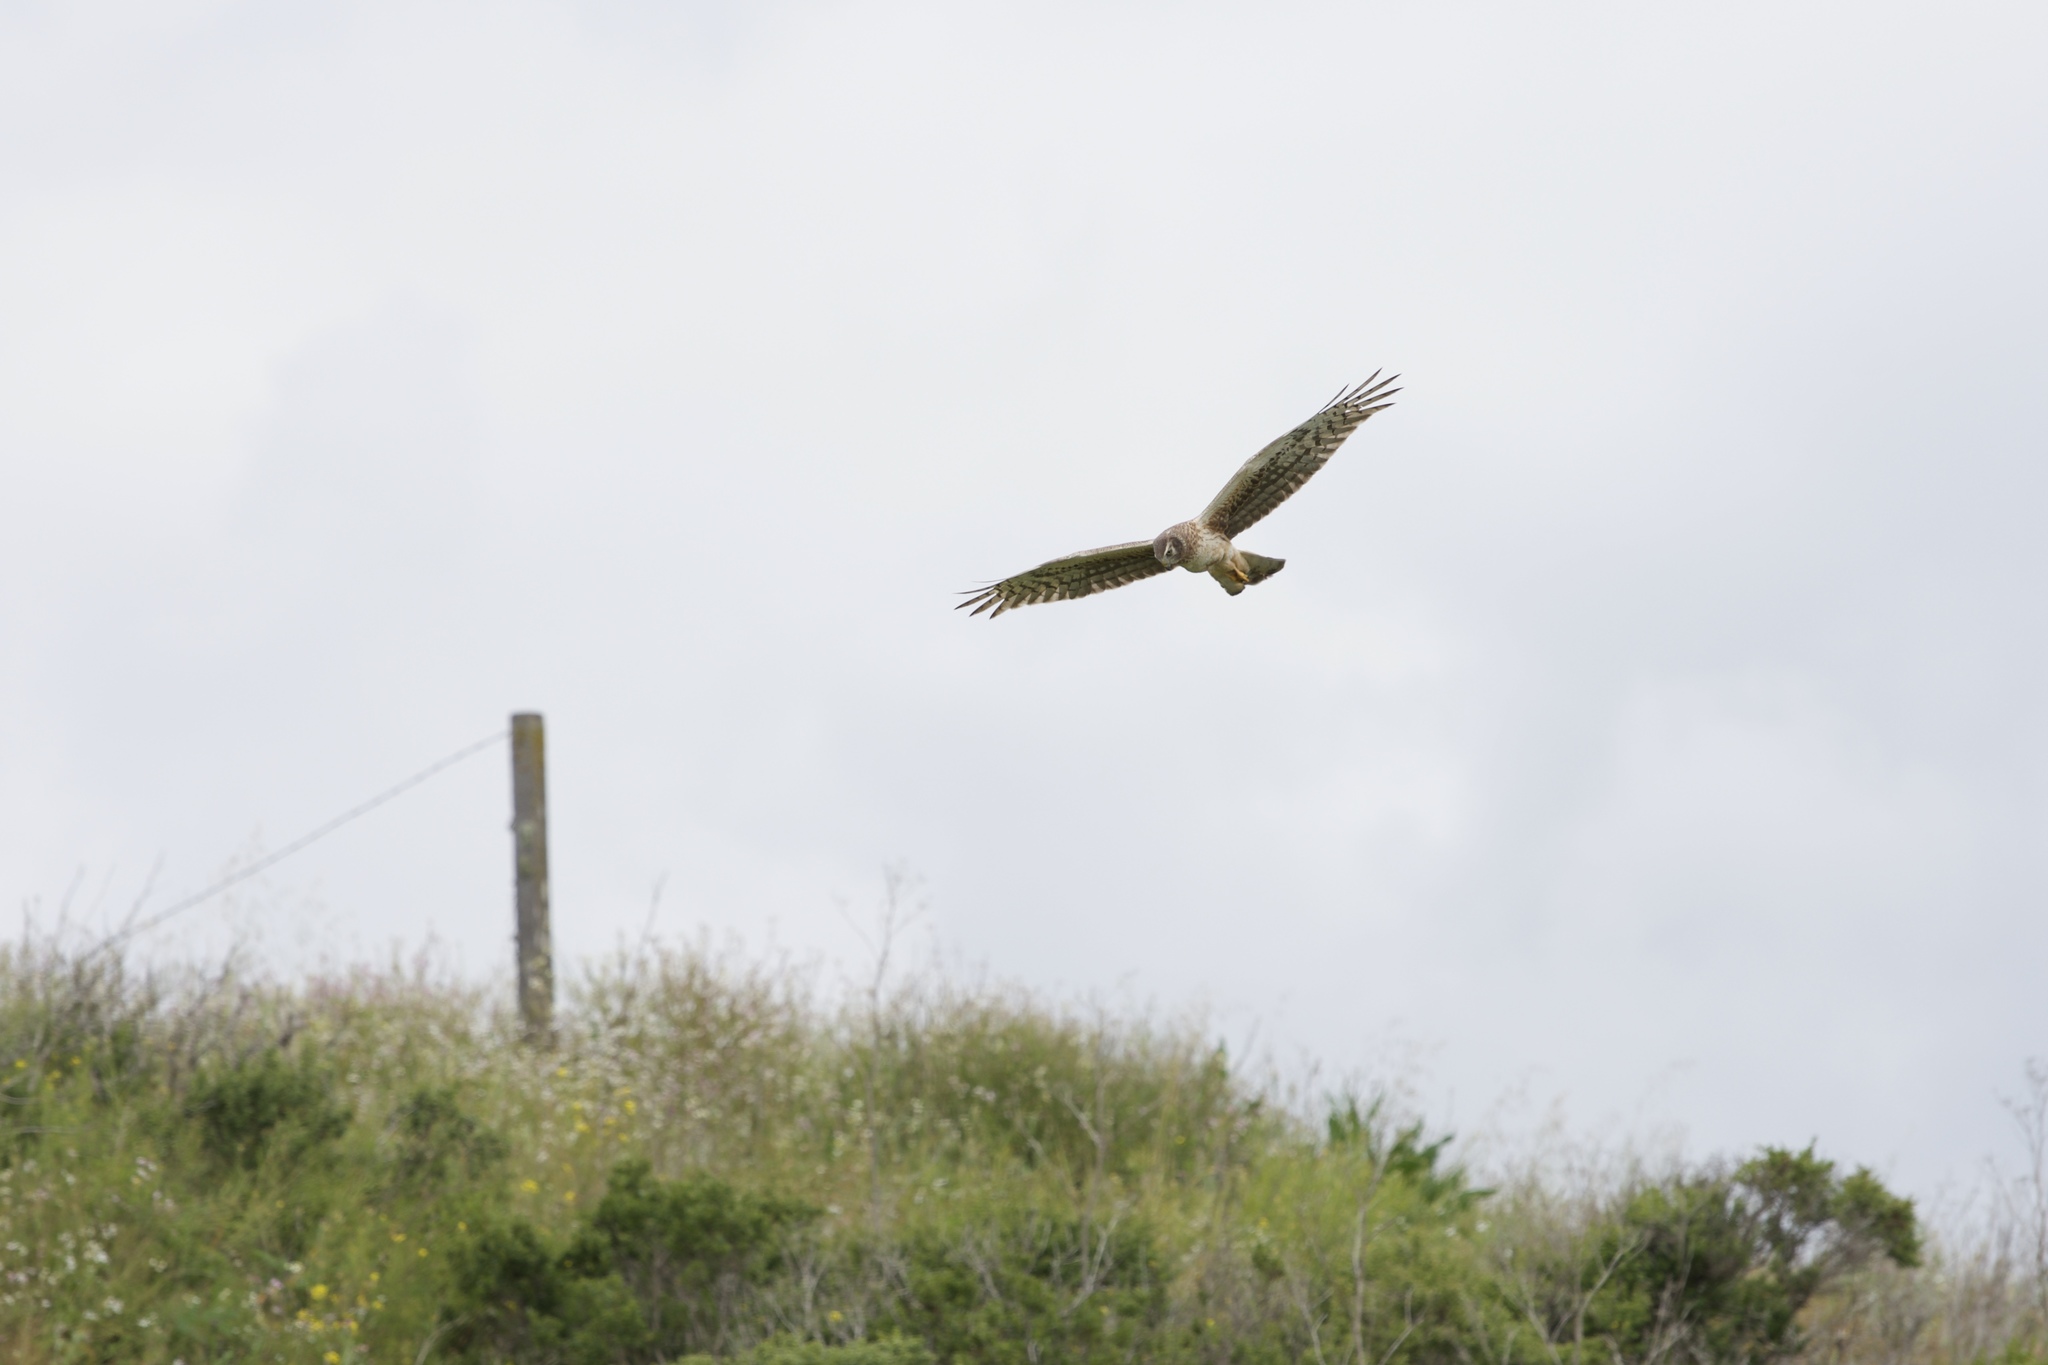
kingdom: Animalia
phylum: Chordata
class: Aves
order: Accipitriformes
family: Accipitridae
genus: Circus
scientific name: Circus cyaneus
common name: Hen harrier
